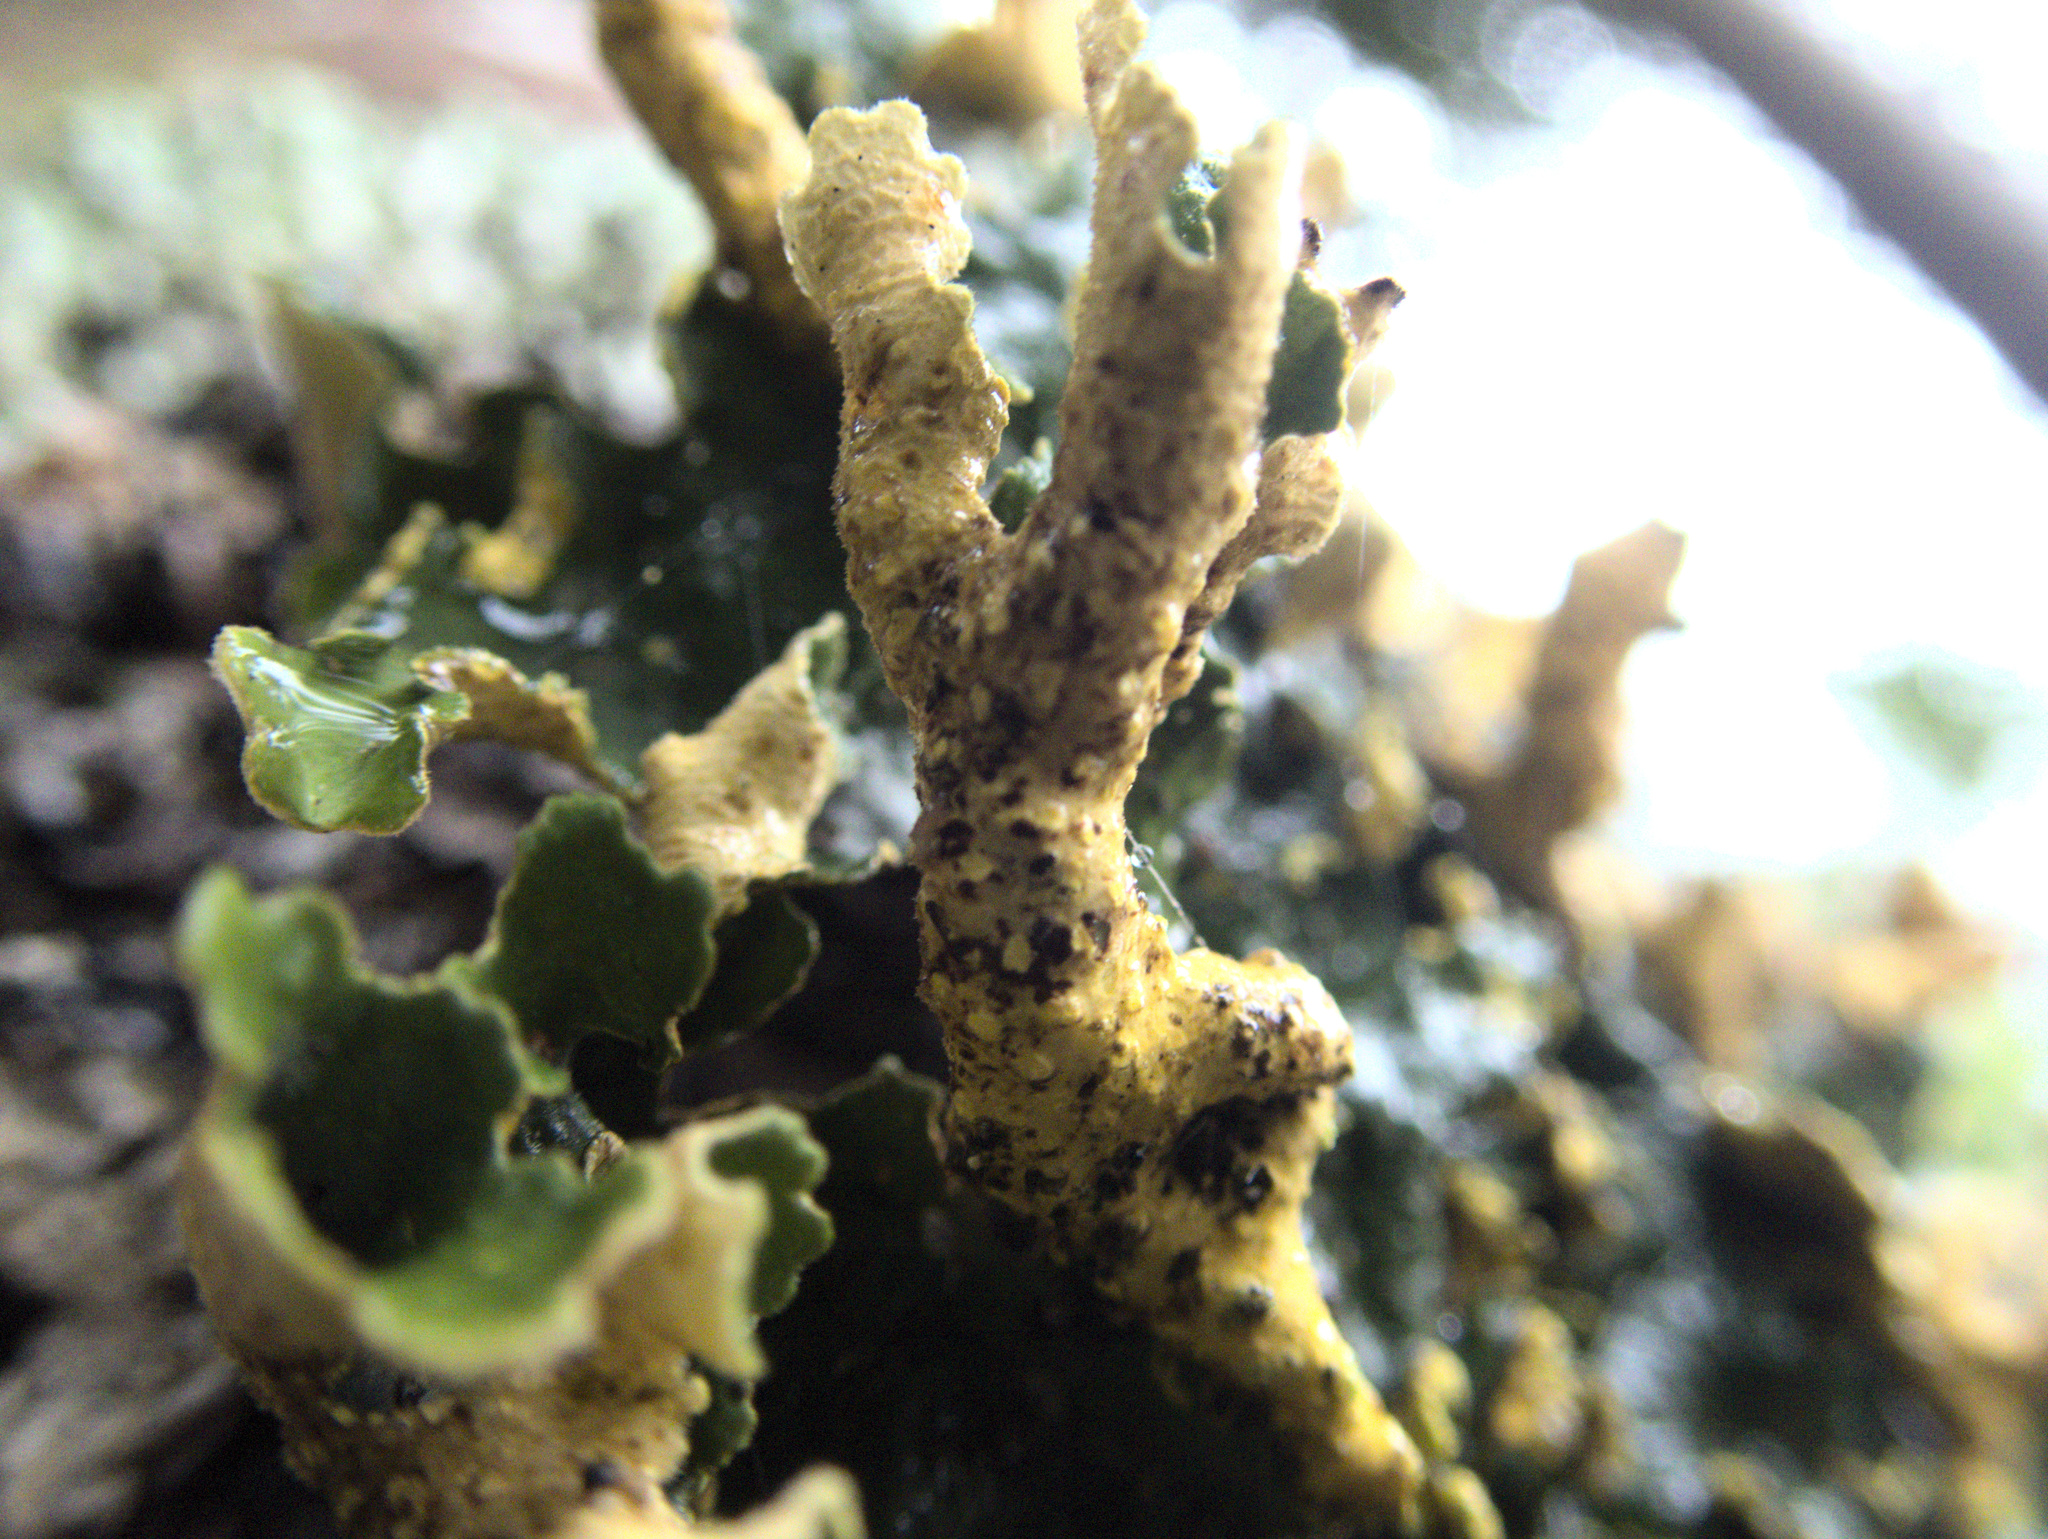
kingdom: Fungi
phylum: Ascomycota
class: Lecanoromycetes
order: Peltigerales
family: Lobariaceae
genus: Pseudocyphellaria
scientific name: Pseudocyphellaria aurata
